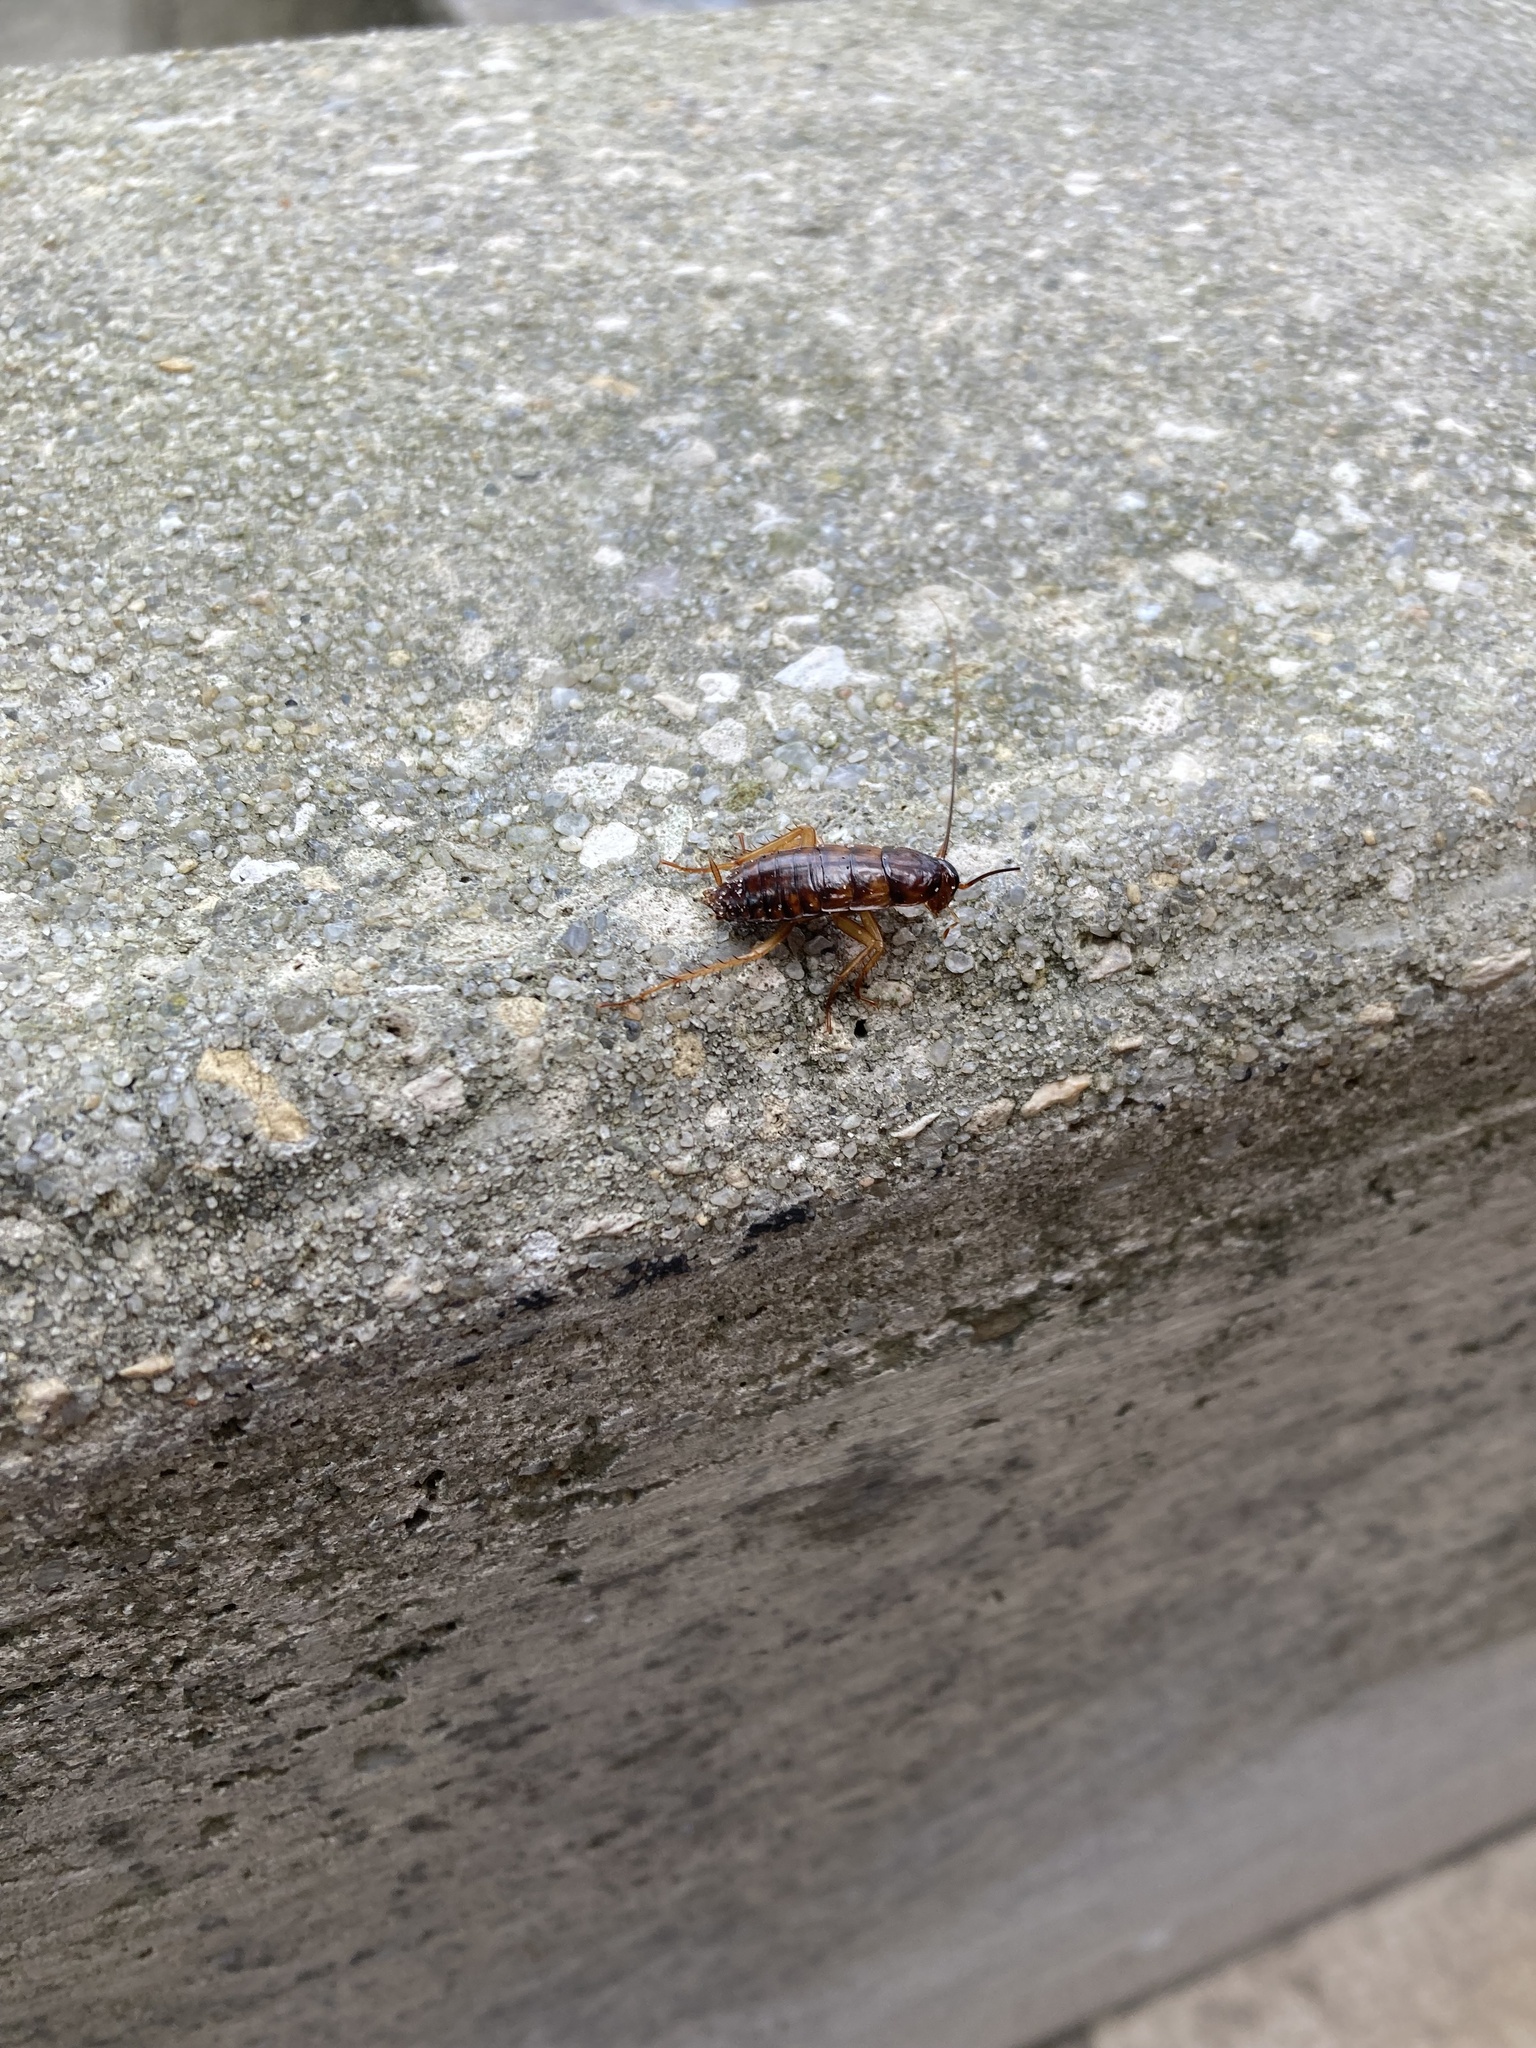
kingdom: Animalia
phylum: Arthropoda
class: Insecta
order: Blattodea
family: Blattidae
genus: Periplaneta
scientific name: Periplaneta americana
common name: American cockroach
